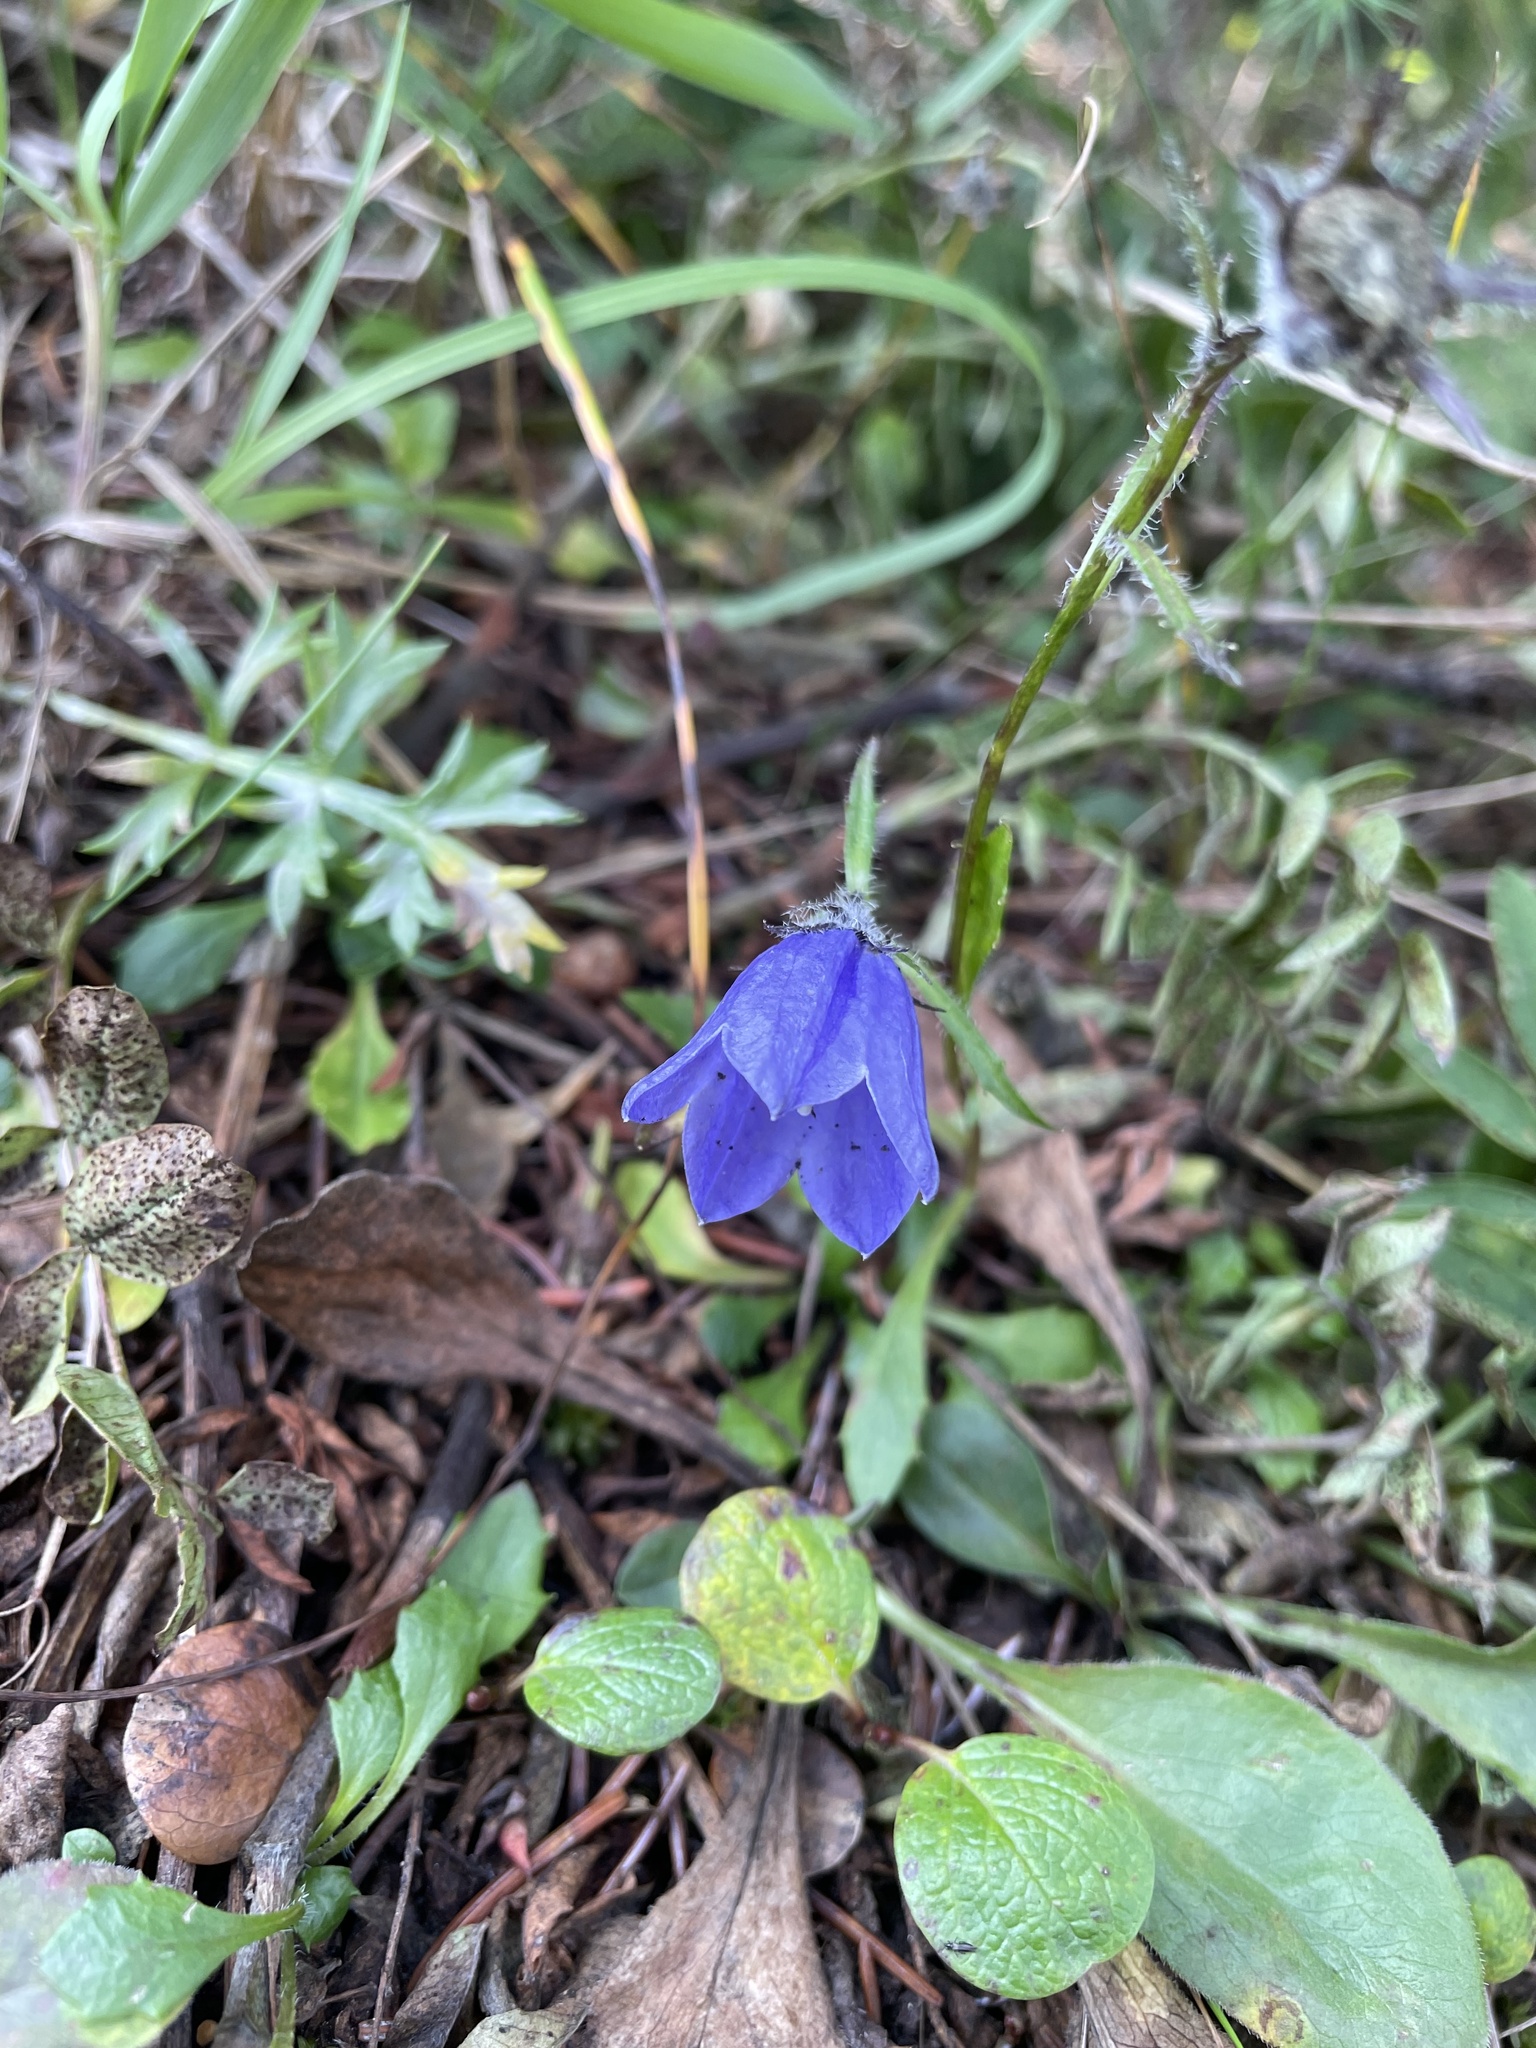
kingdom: Plantae
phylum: Tracheophyta
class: Magnoliopsida
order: Asterales
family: Campanulaceae
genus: Campanula
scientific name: Campanula lasiocarpa
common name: Mountain harebell
